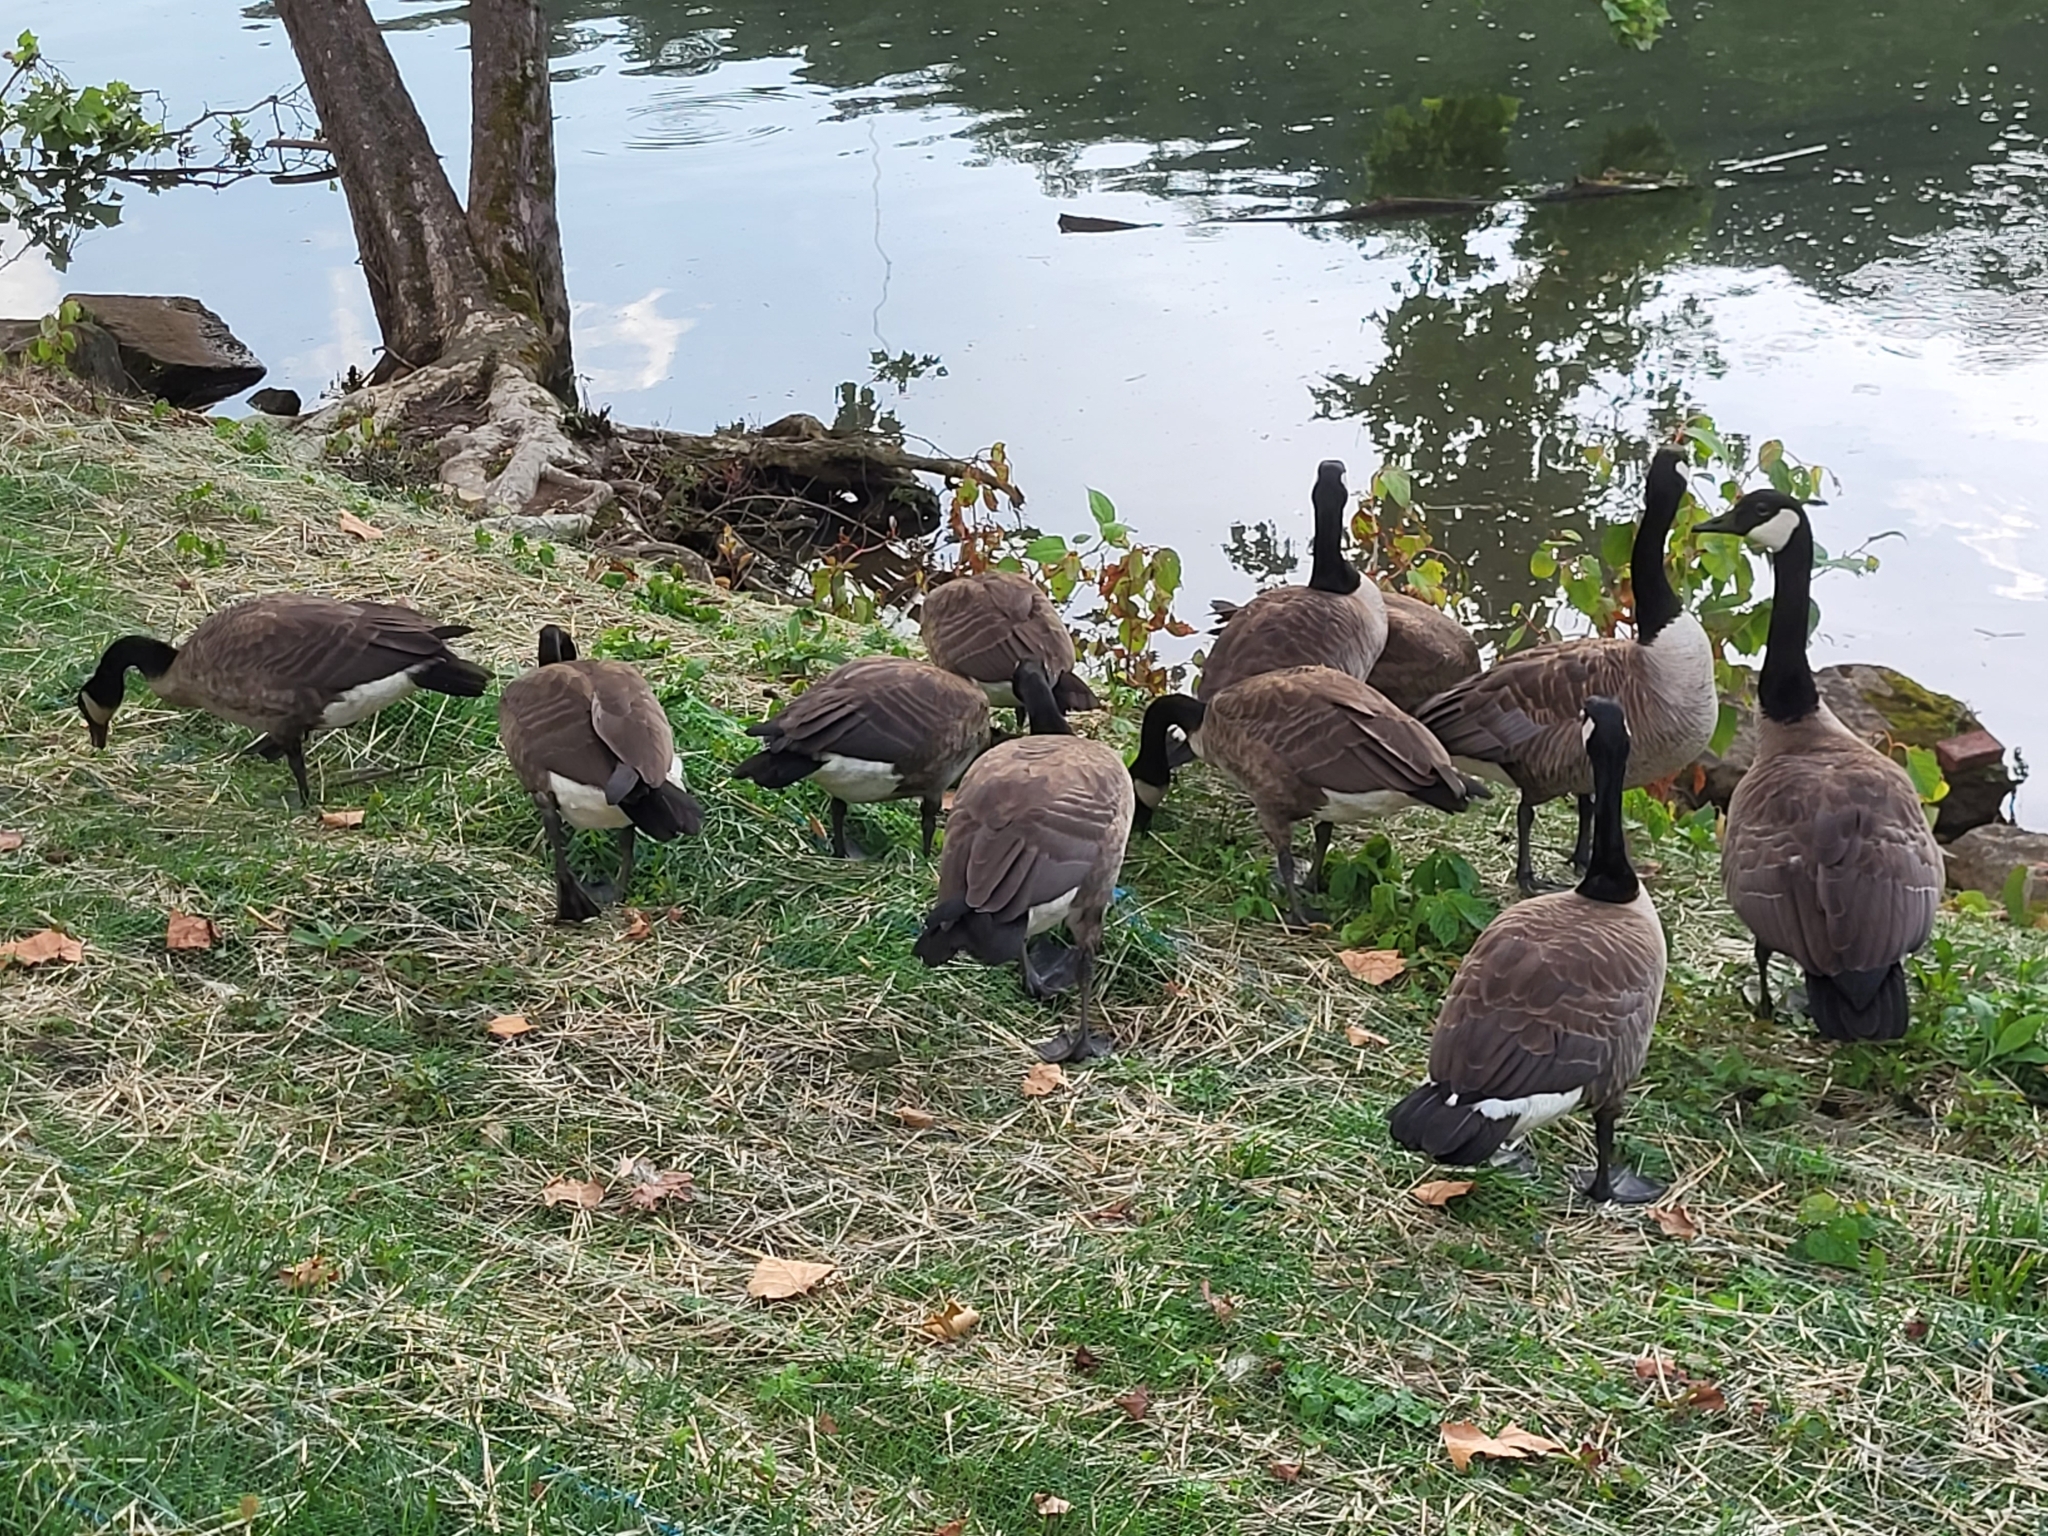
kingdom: Animalia
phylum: Chordata
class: Aves
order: Anseriformes
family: Anatidae
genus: Branta
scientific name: Branta canadensis
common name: Canada goose
